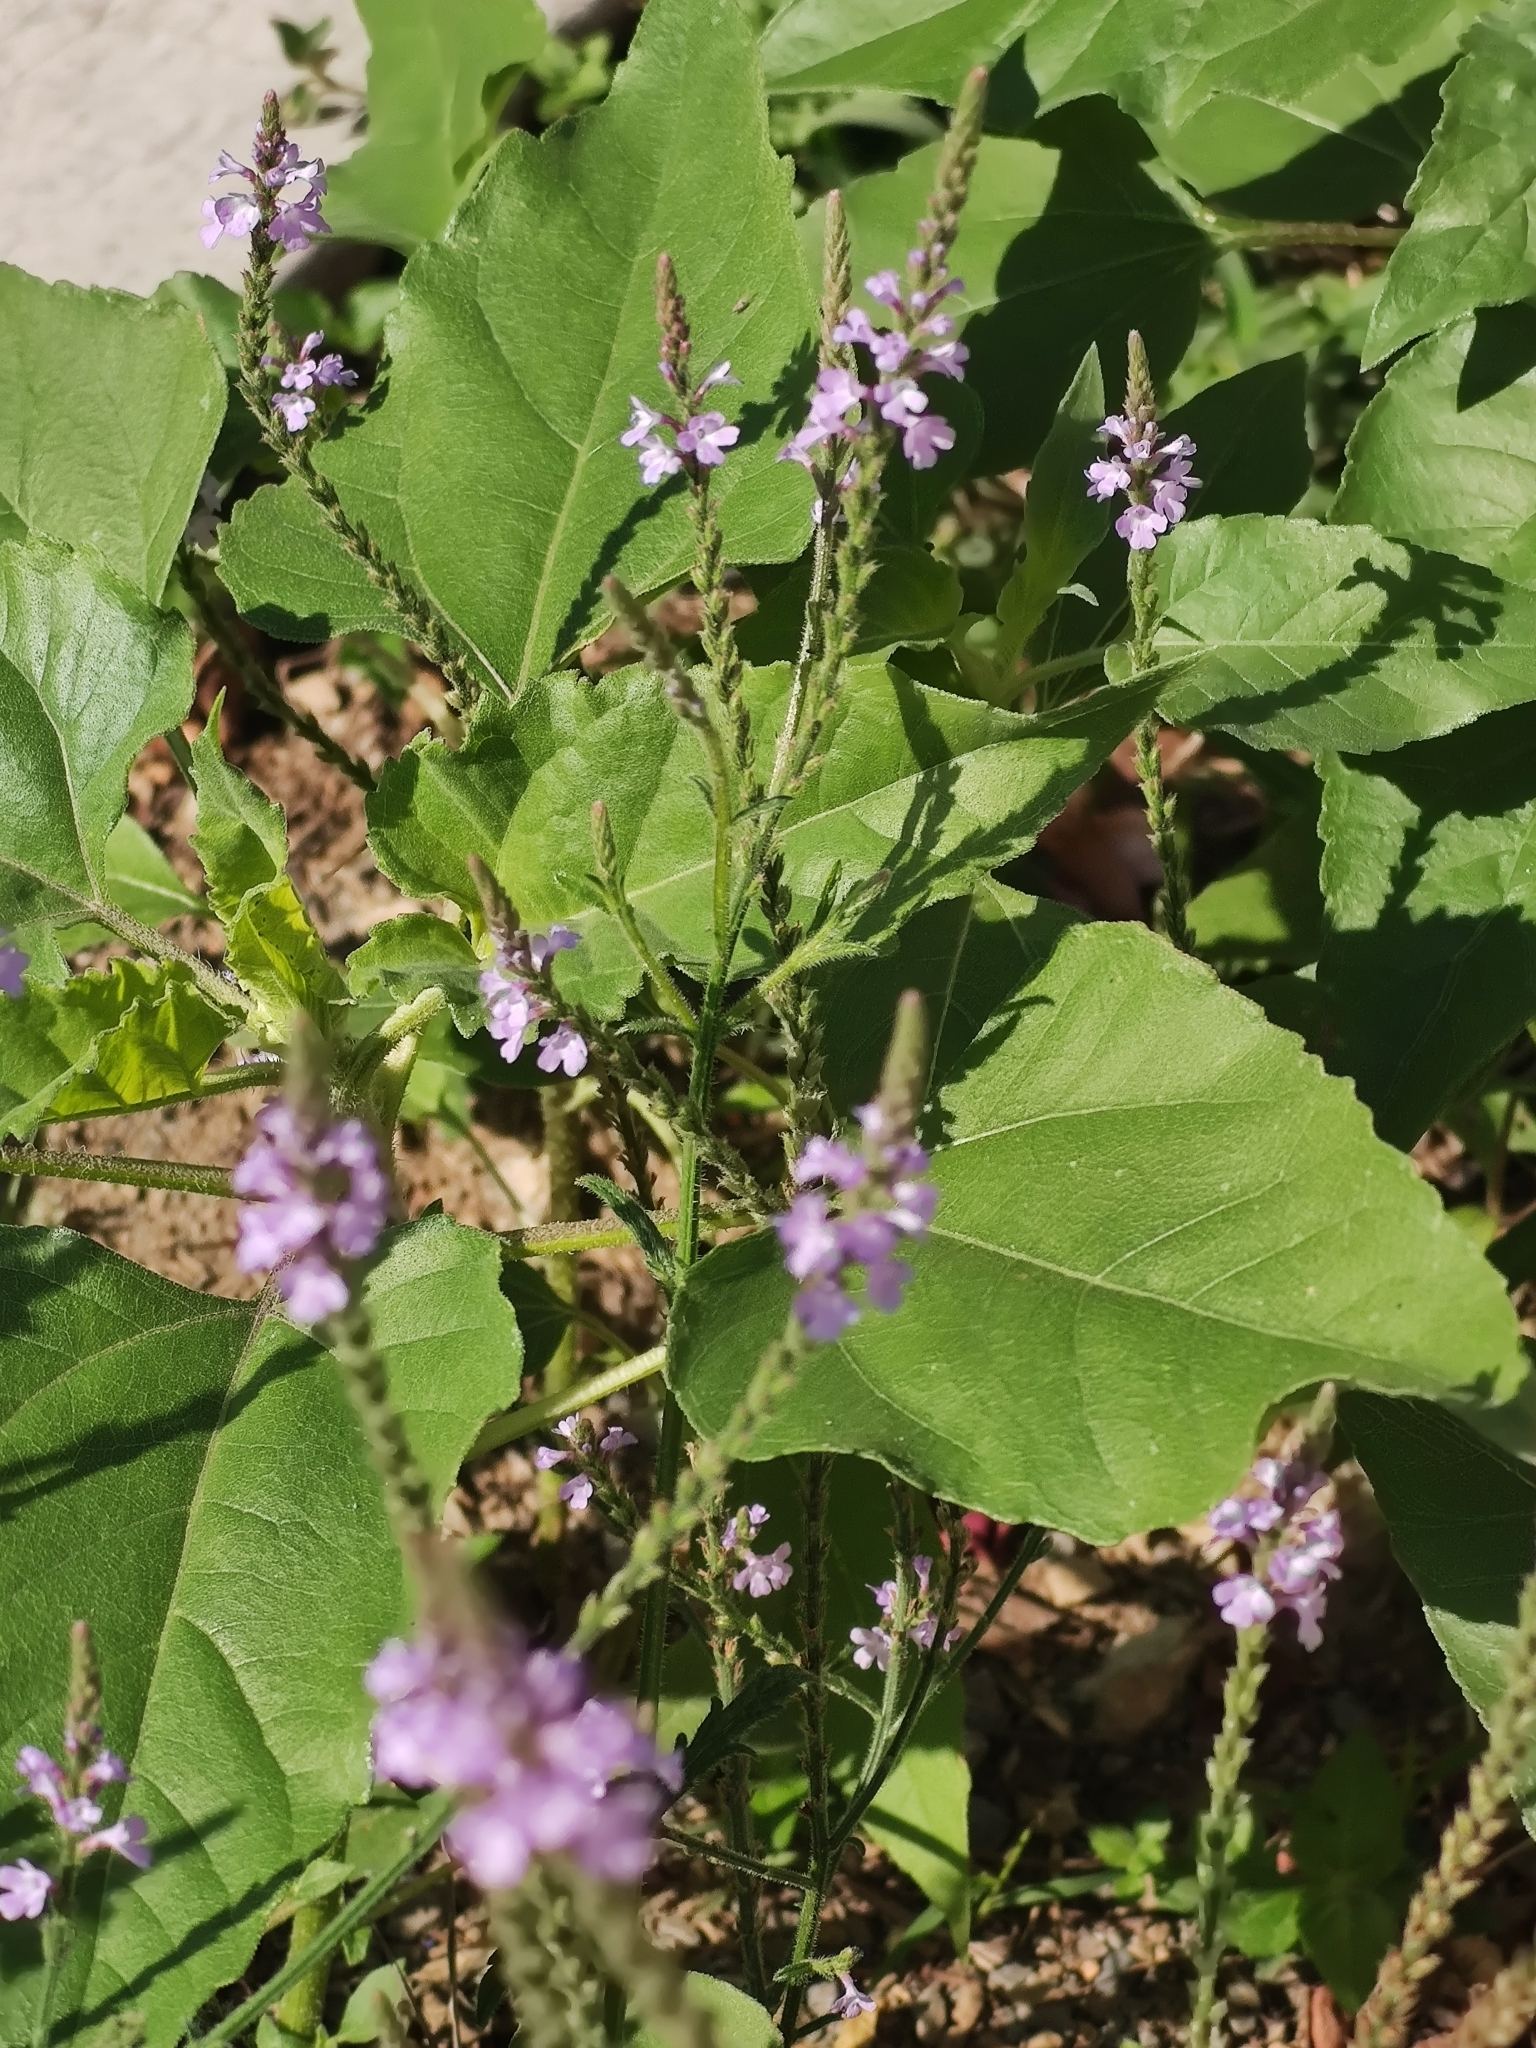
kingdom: Plantae
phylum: Tracheophyta
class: Magnoliopsida
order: Lamiales
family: Verbenaceae
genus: Verbena
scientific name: Verbena canescens
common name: Gray vervain
